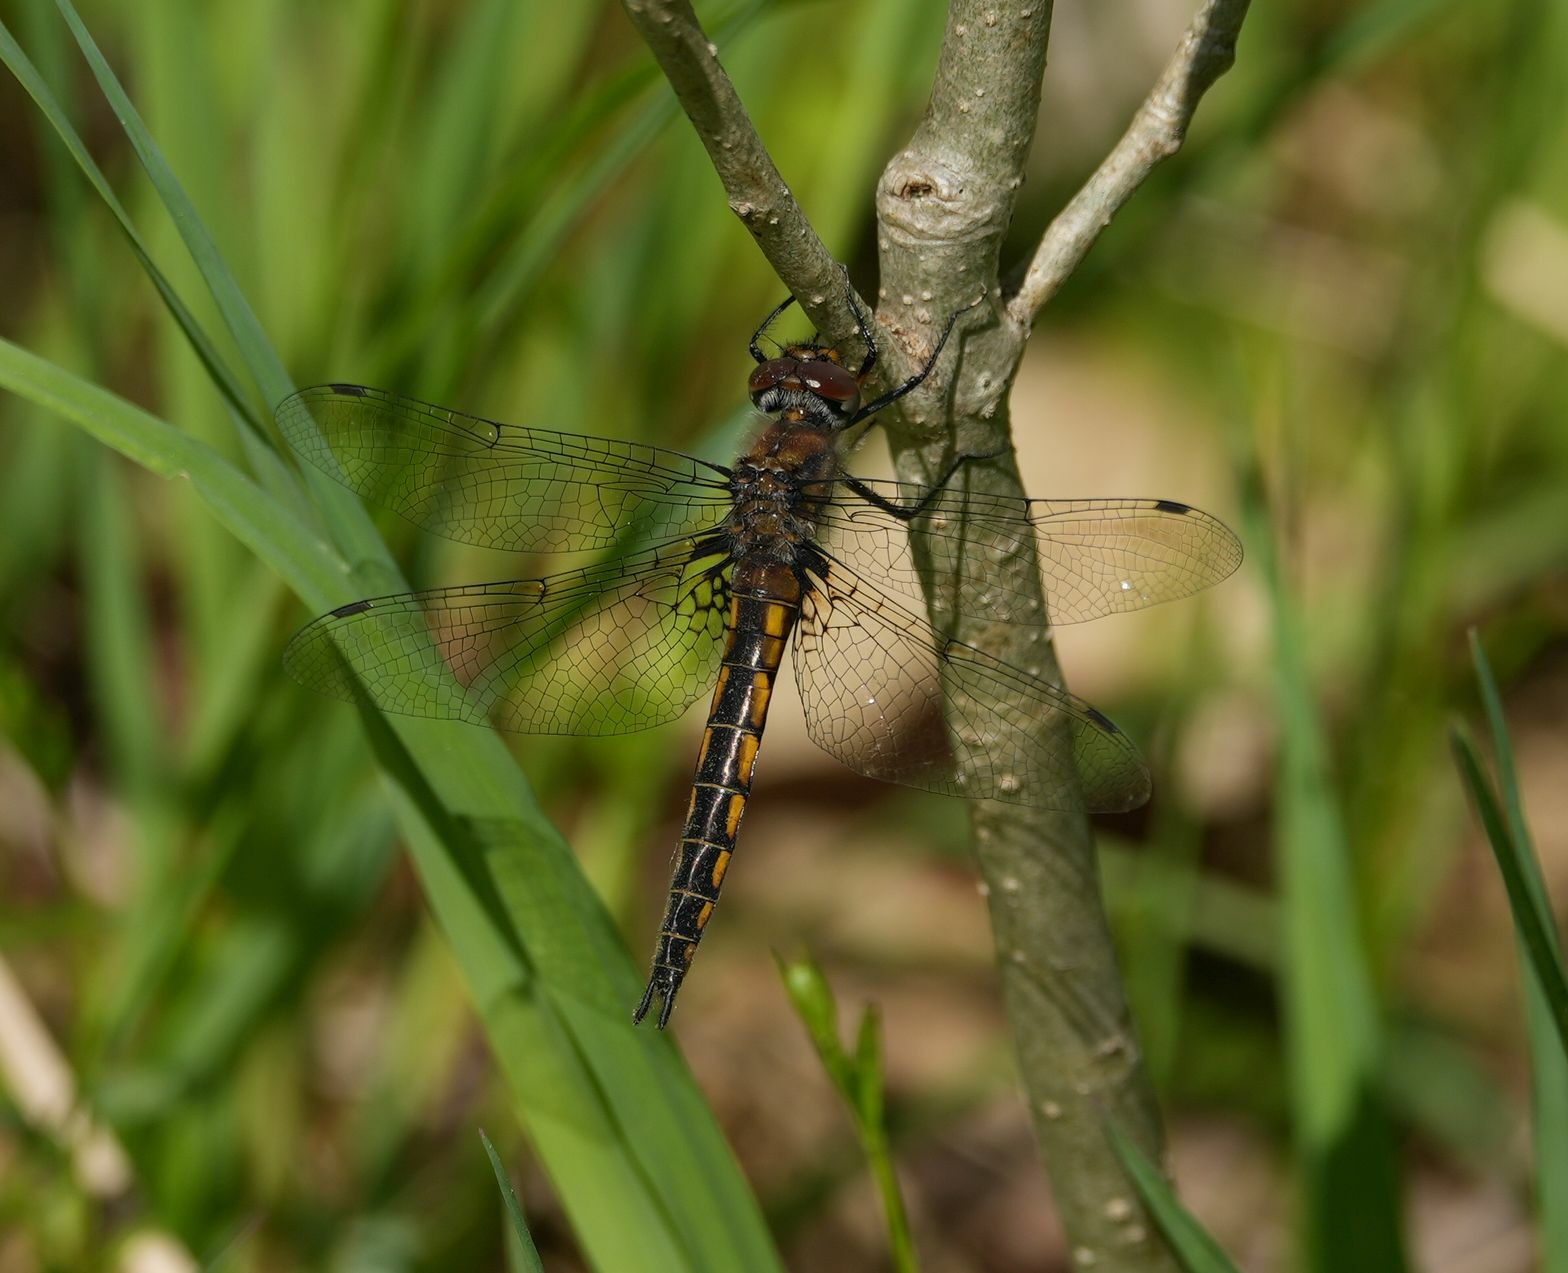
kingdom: Animalia
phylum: Arthropoda
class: Insecta
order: Odonata
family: Corduliidae
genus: Epitheca
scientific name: Epitheca spinigera
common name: Spiny baskettail
